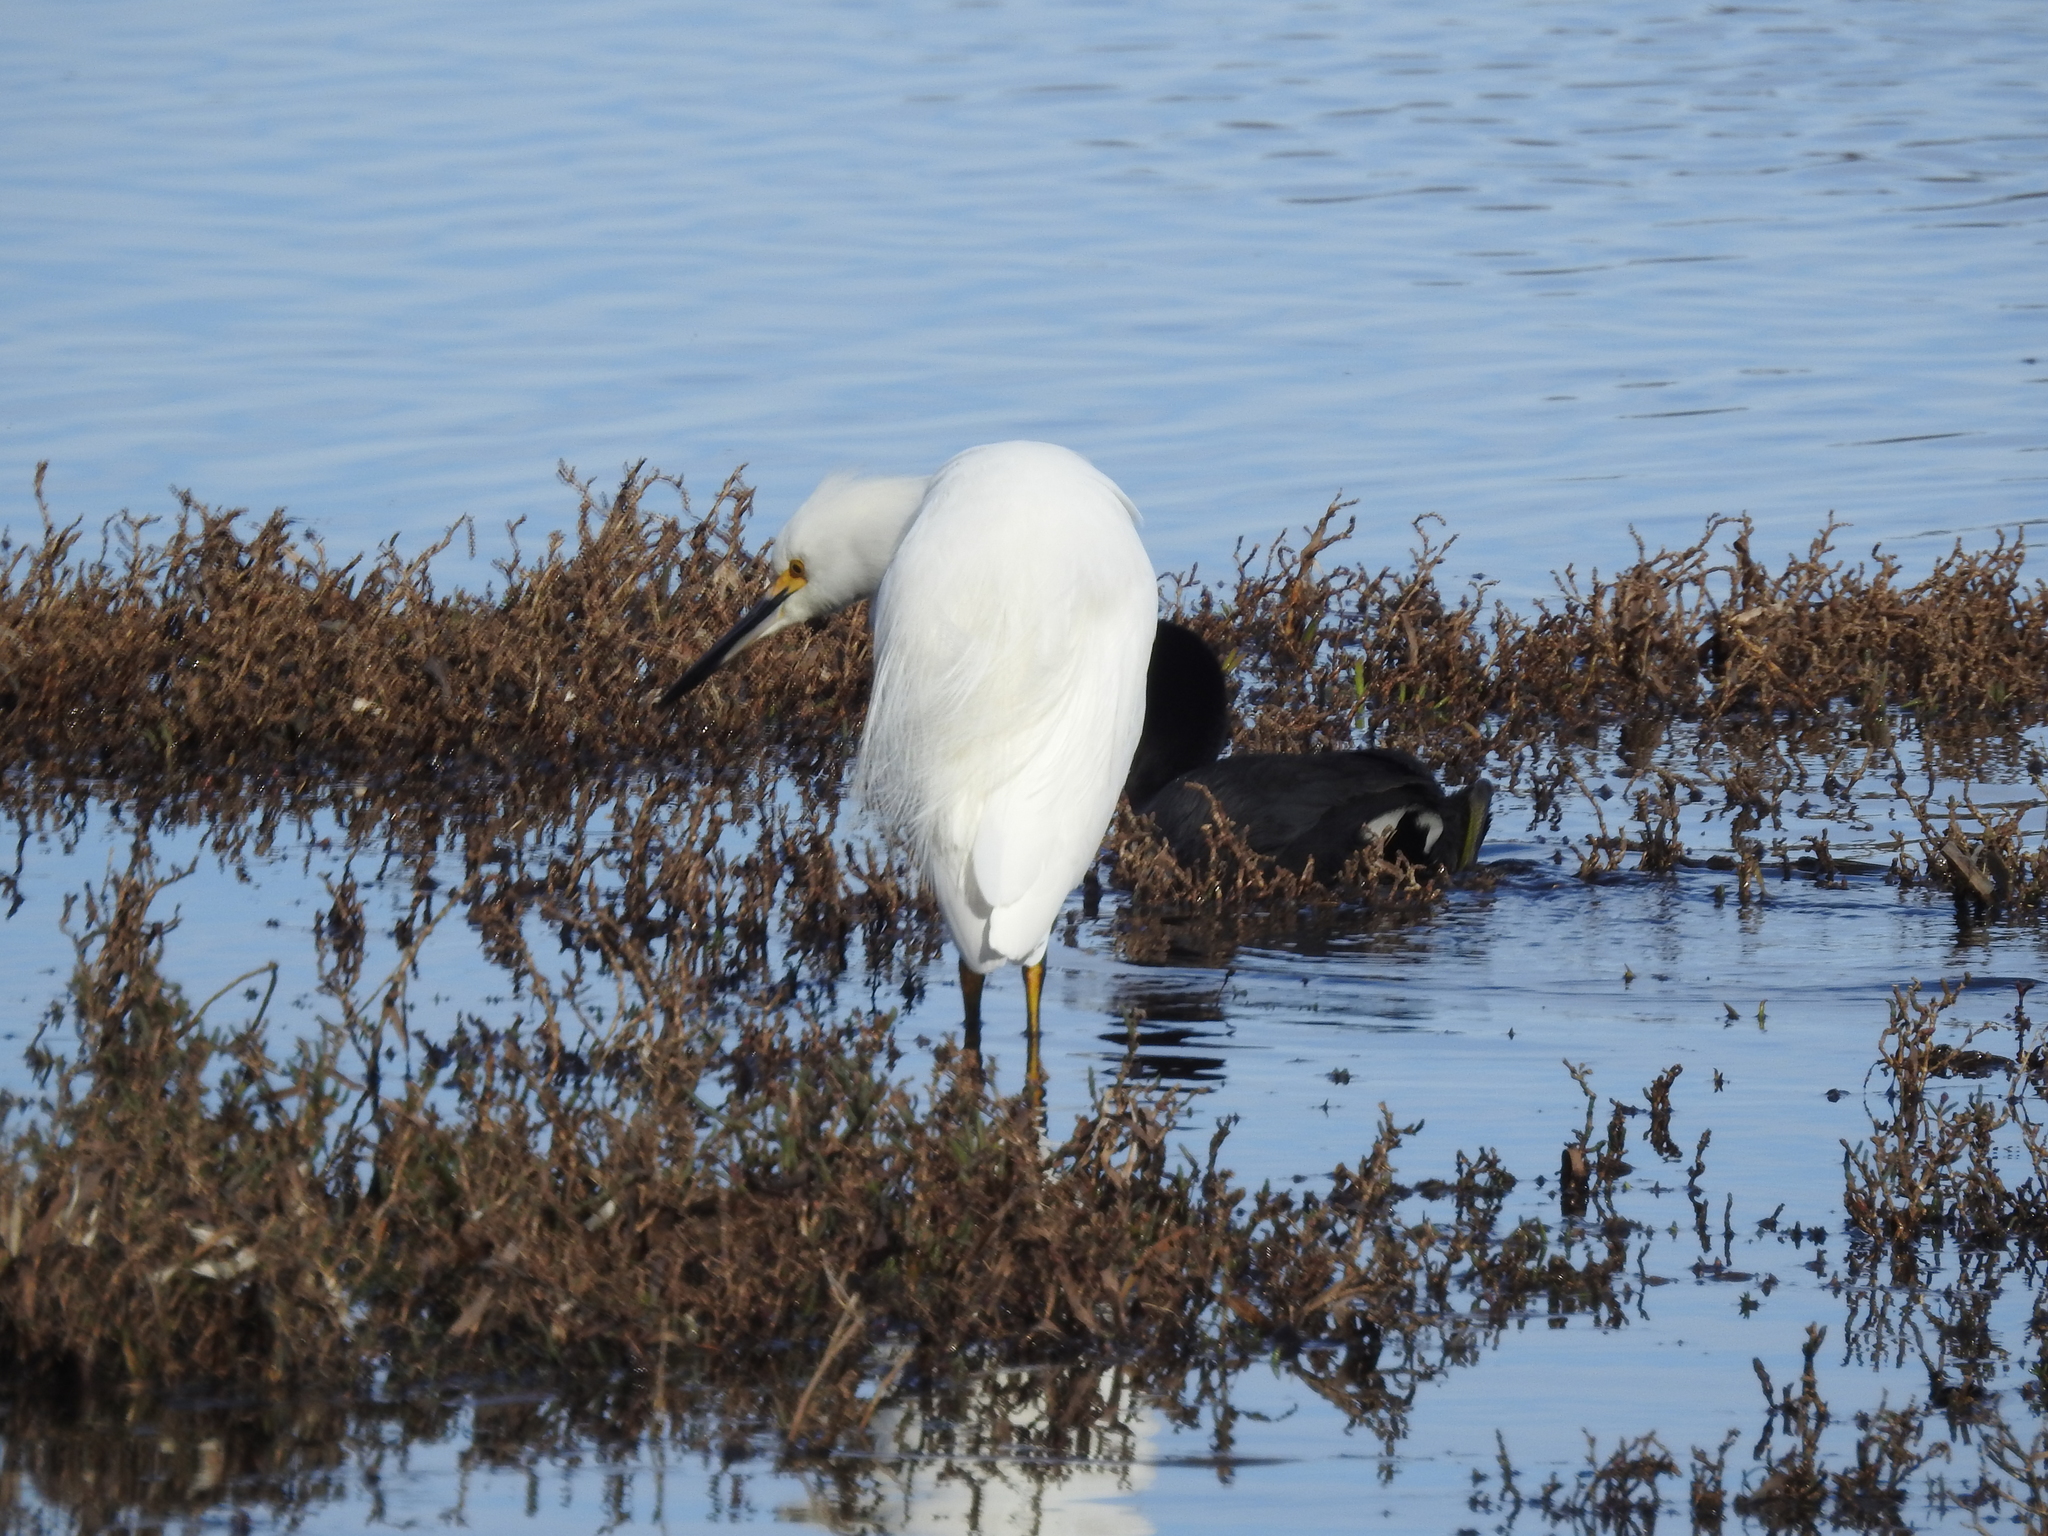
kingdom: Animalia
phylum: Chordata
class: Aves
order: Pelecaniformes
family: Ardeidae
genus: Egretta
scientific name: Egretta thula
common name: Snowy egret
